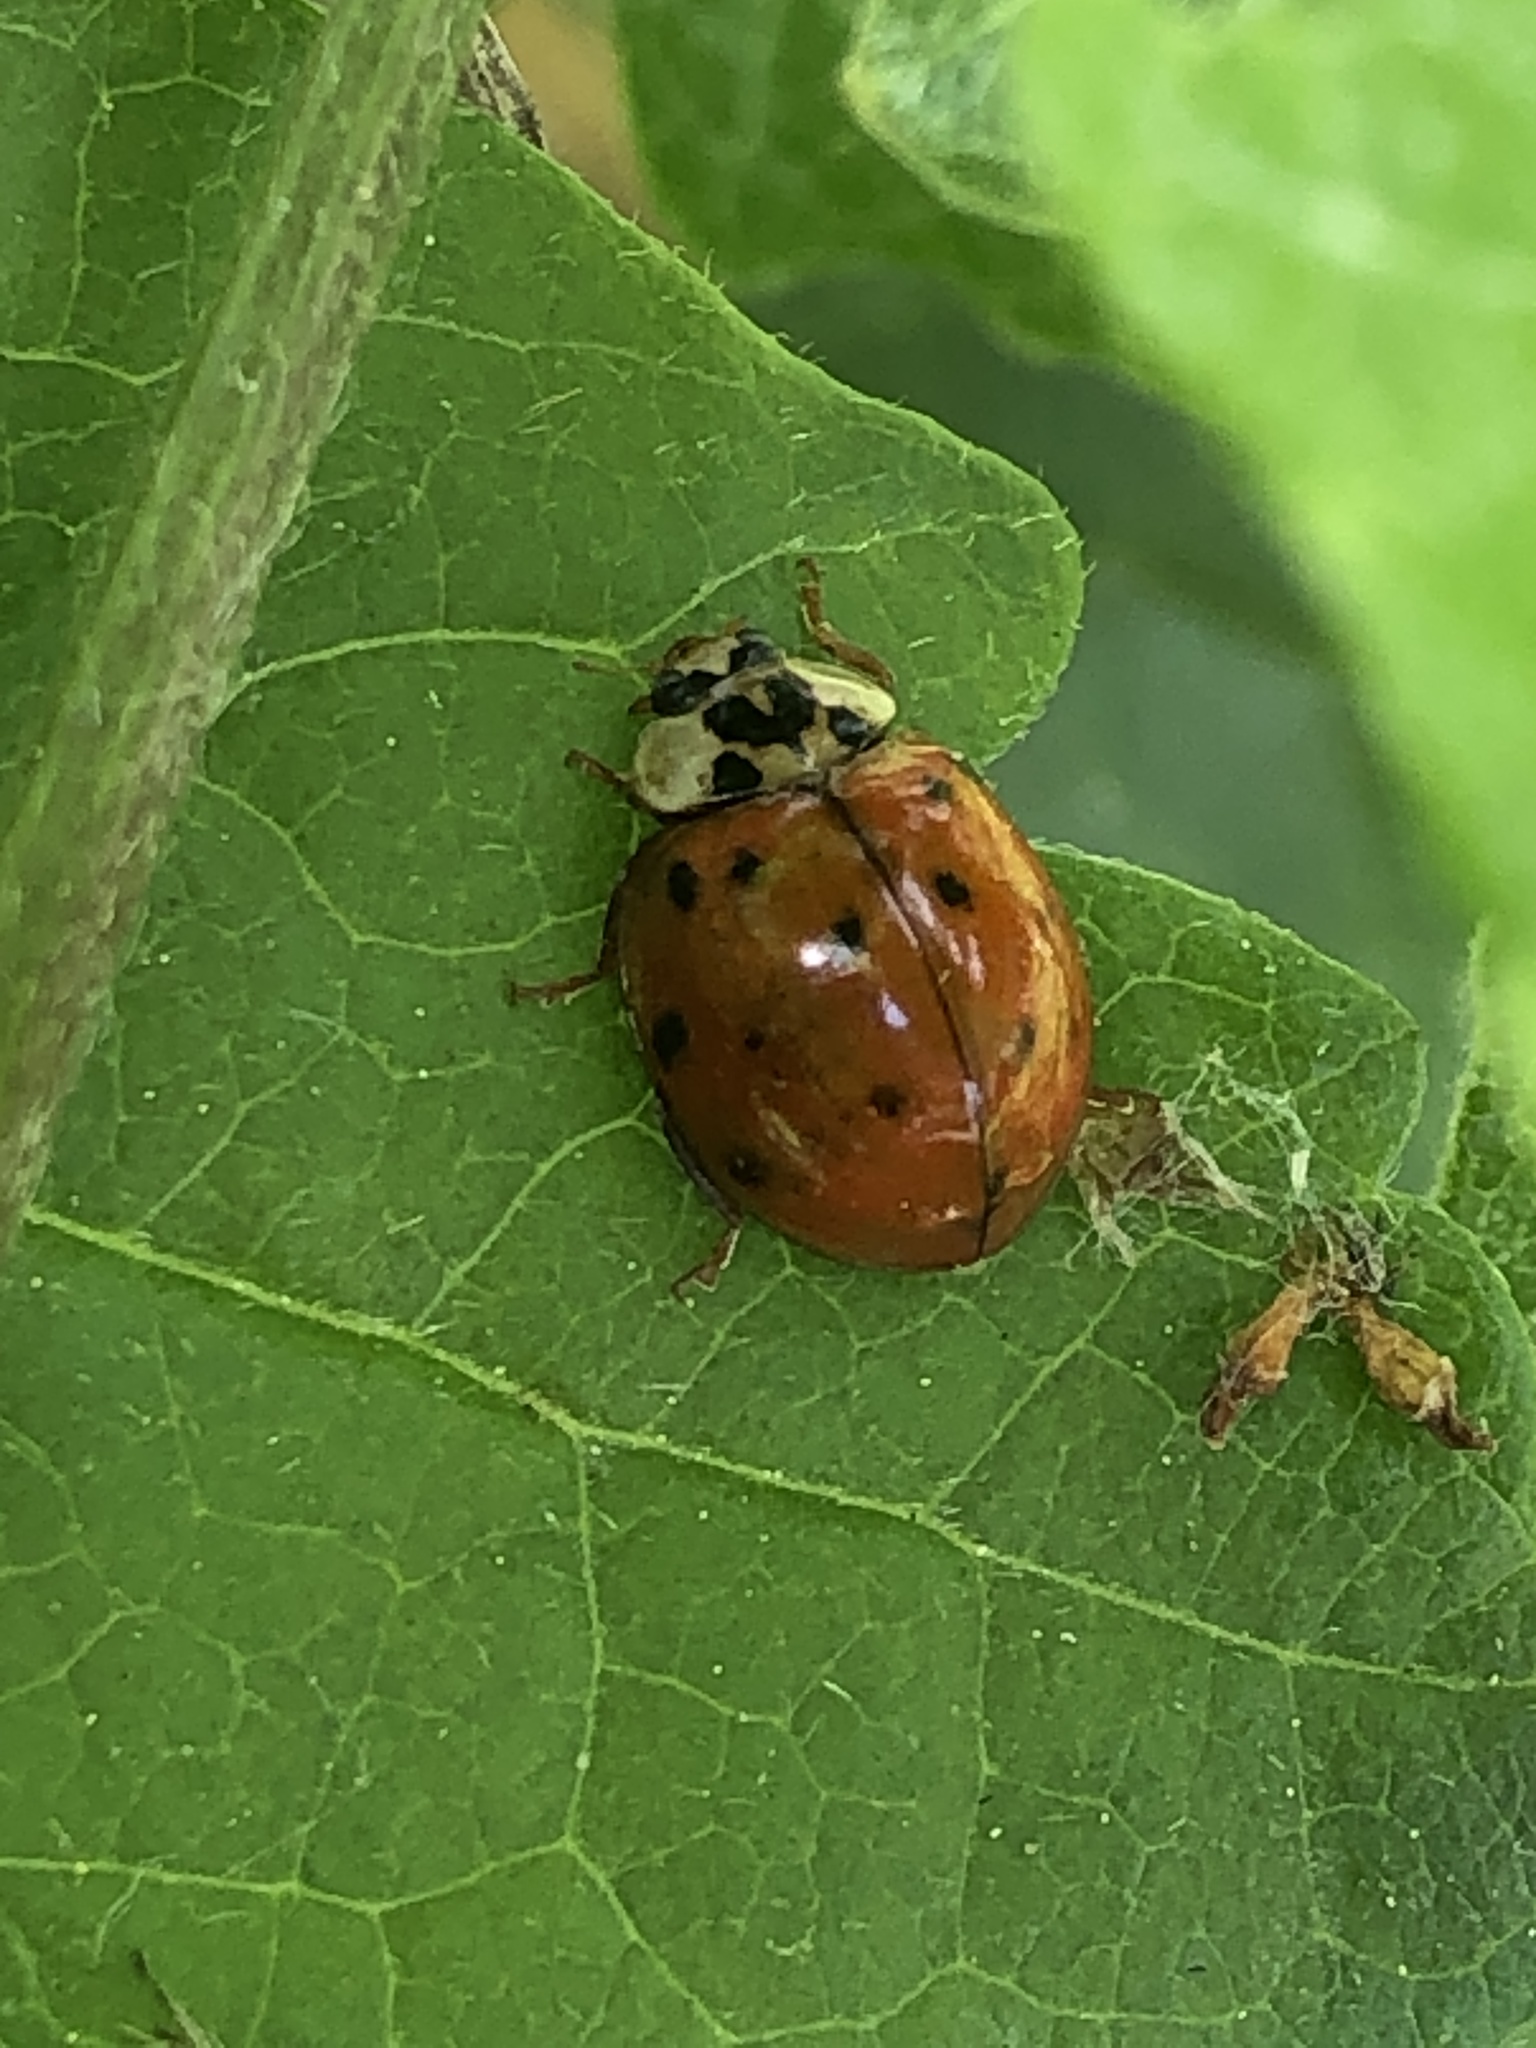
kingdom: Animalia
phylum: Arthropoda
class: Insecta
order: Coleoptera
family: Coccinellidae
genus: Harmonia
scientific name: Harmonia axyridis
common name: Harlequin ladybird
